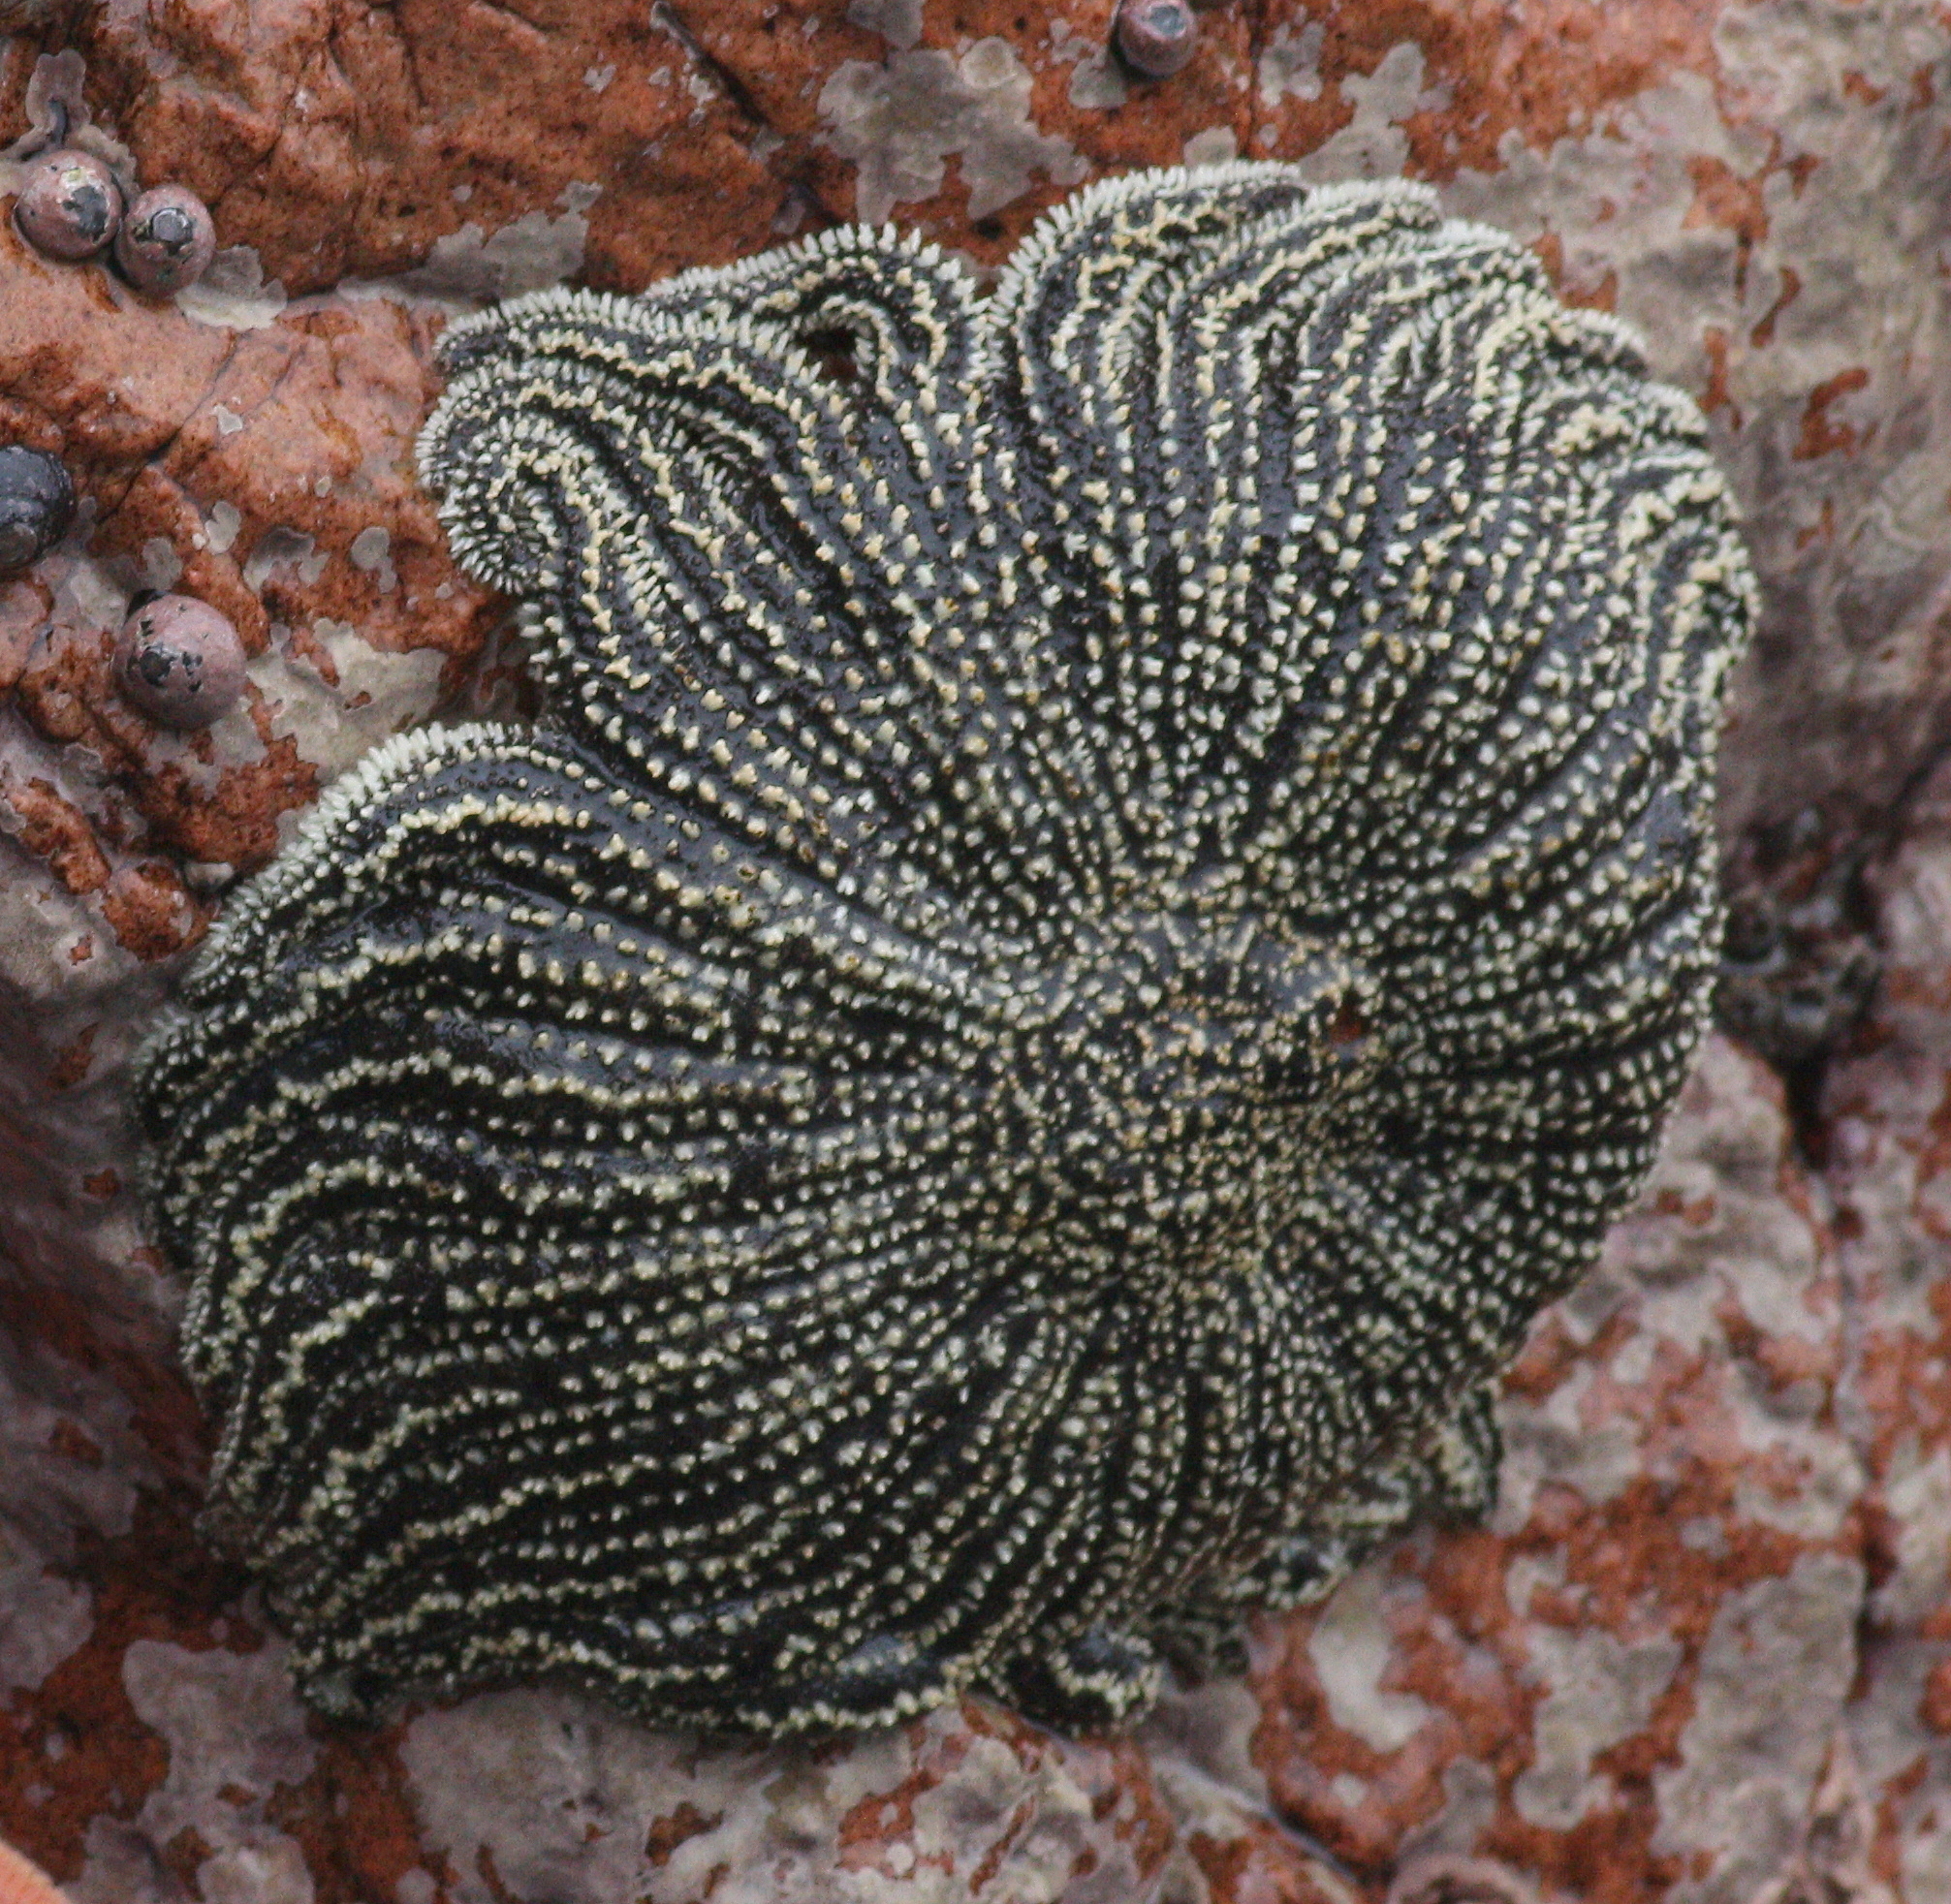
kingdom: Animalia
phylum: Echinodermata
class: Asteroidea
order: Forcipulatida
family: Heliasteridae
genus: Heliaster
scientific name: Heliaster helianthus
